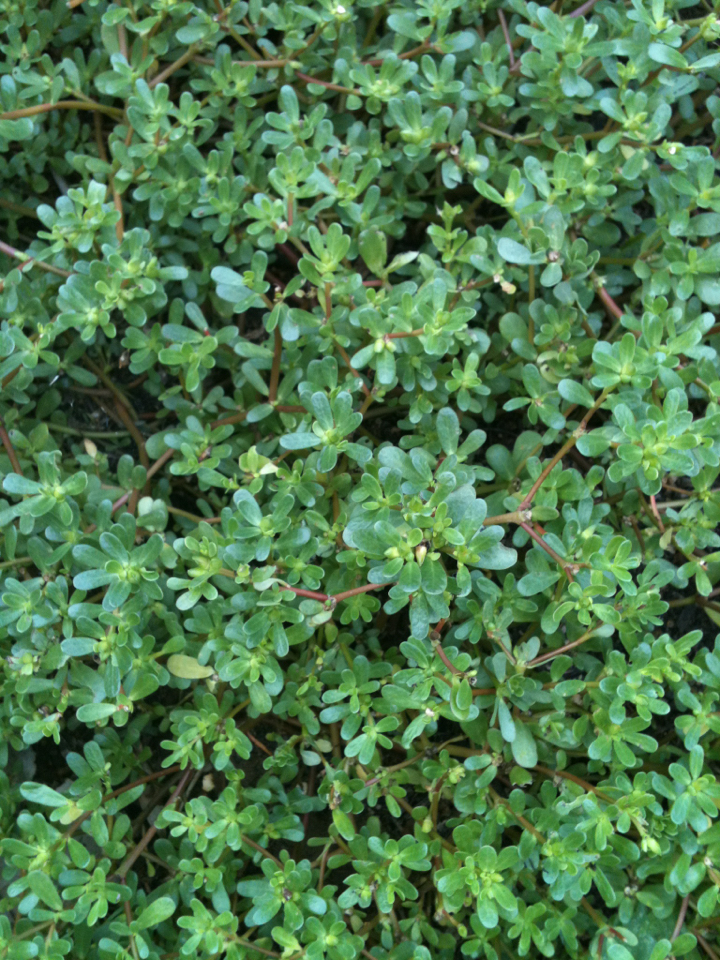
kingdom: Plantae
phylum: Tracheophyta
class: Magnoliopsida
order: Caryophyllales
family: Portulacaceae
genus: Portulaca
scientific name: Portulaca oleracea
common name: Common purslane
